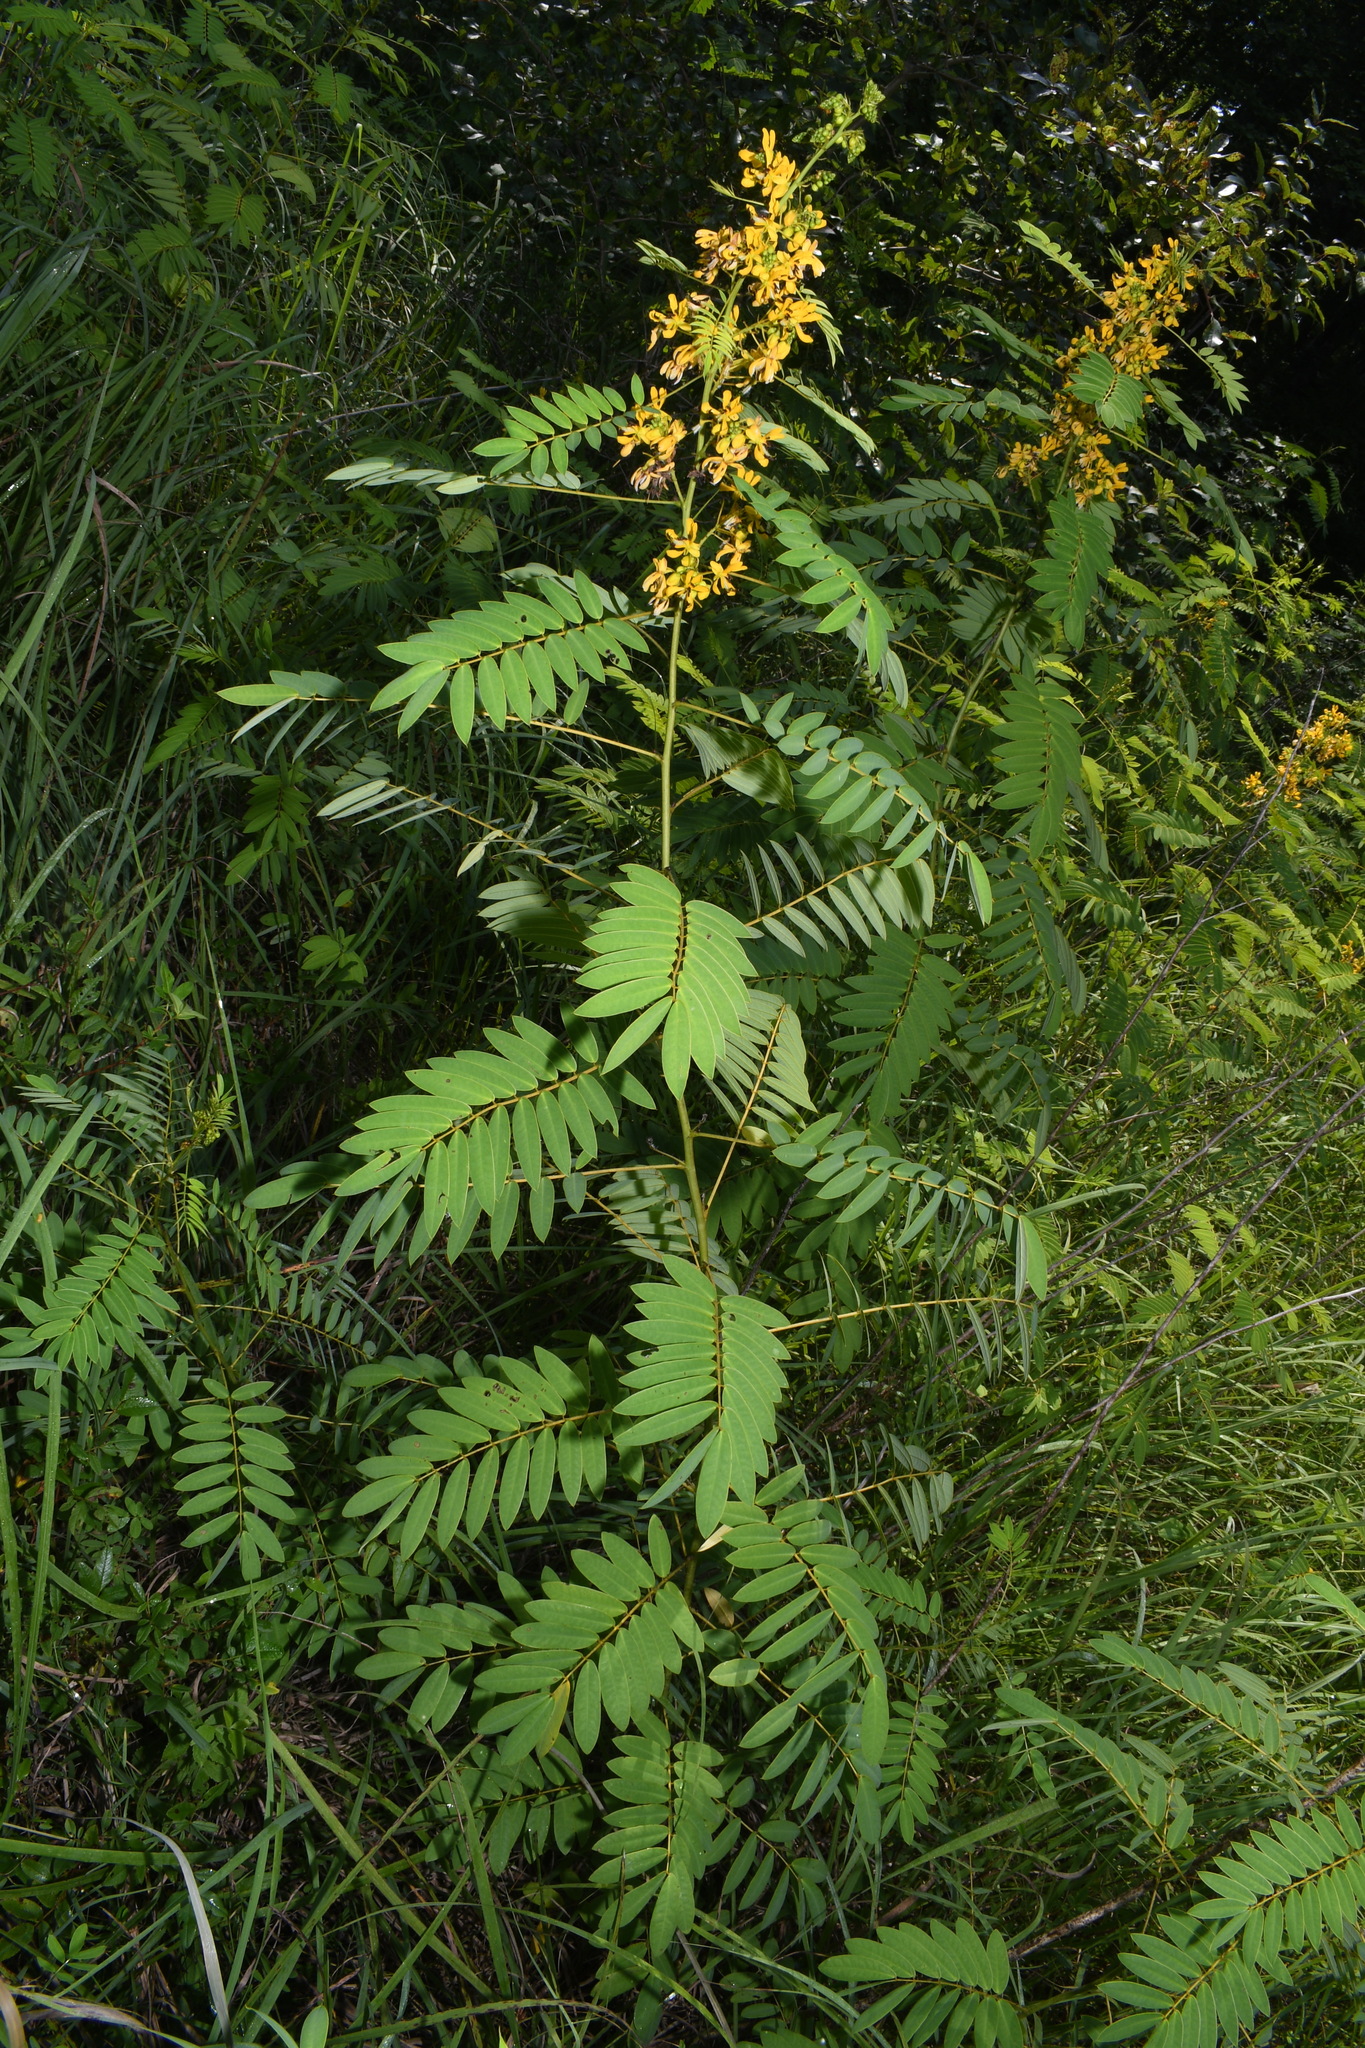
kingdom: Plantae
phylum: Tracheophyta
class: Magnoliopsida
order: Fabales
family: Fabaceae
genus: Senna
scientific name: Senna hebecarpa
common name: Wild senna
